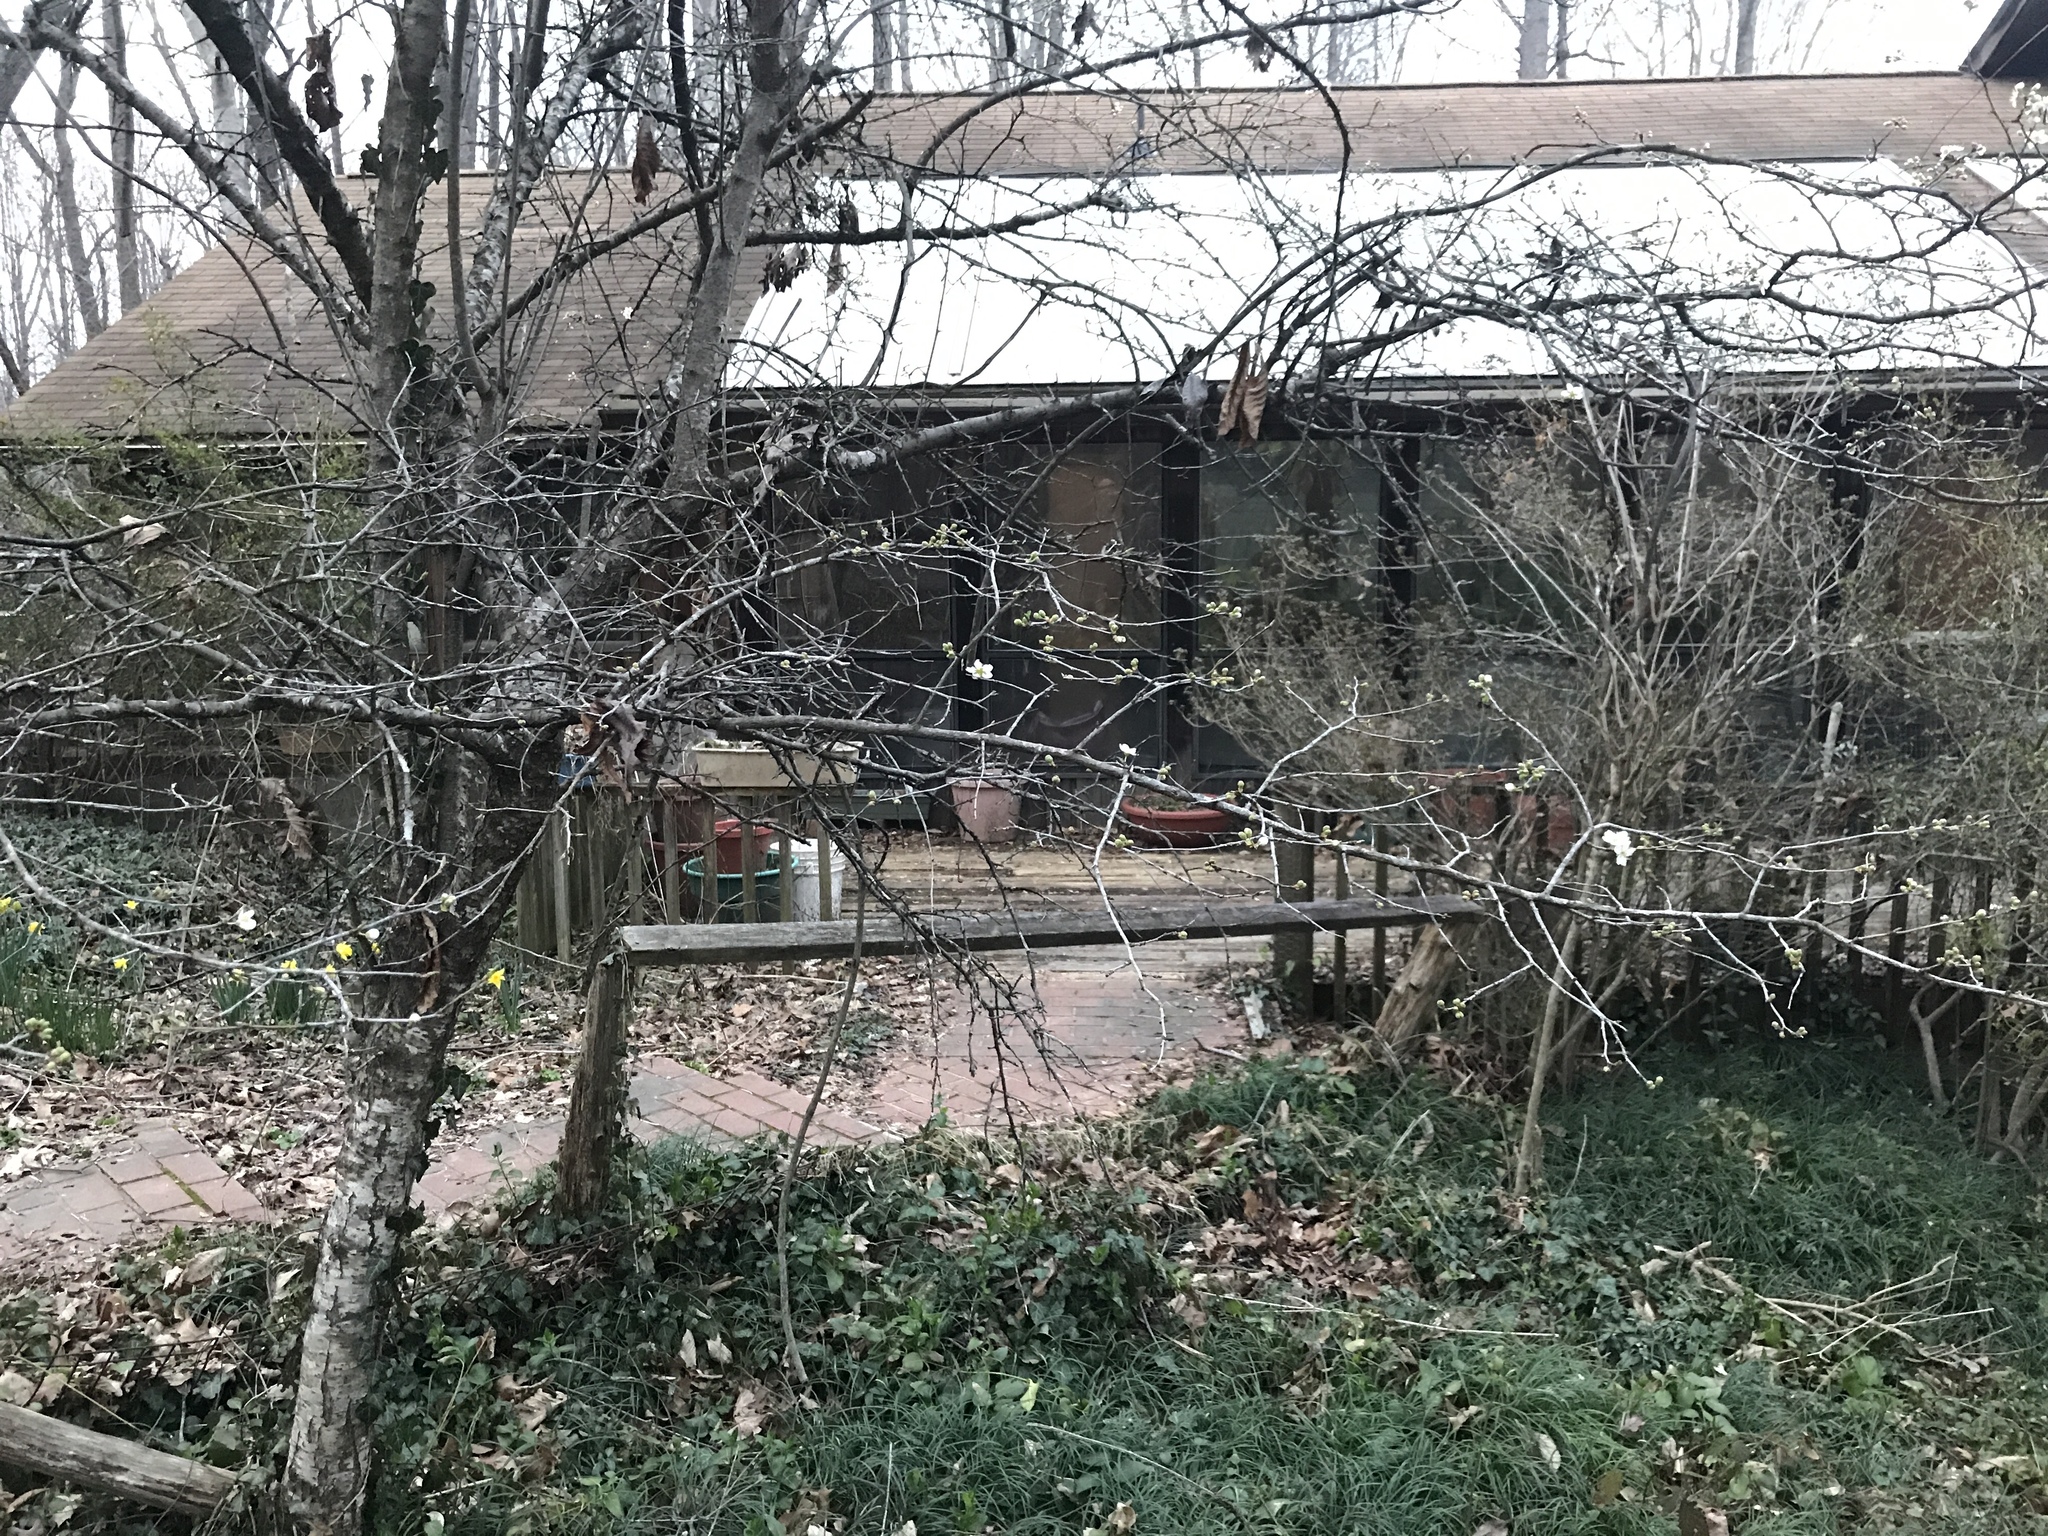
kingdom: Plantae
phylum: Tracheophyta
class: Magnoliopsida
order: Rosales
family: Rosaceae
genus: Prunus
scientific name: Prunus angustifolia
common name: Cherokee plum
